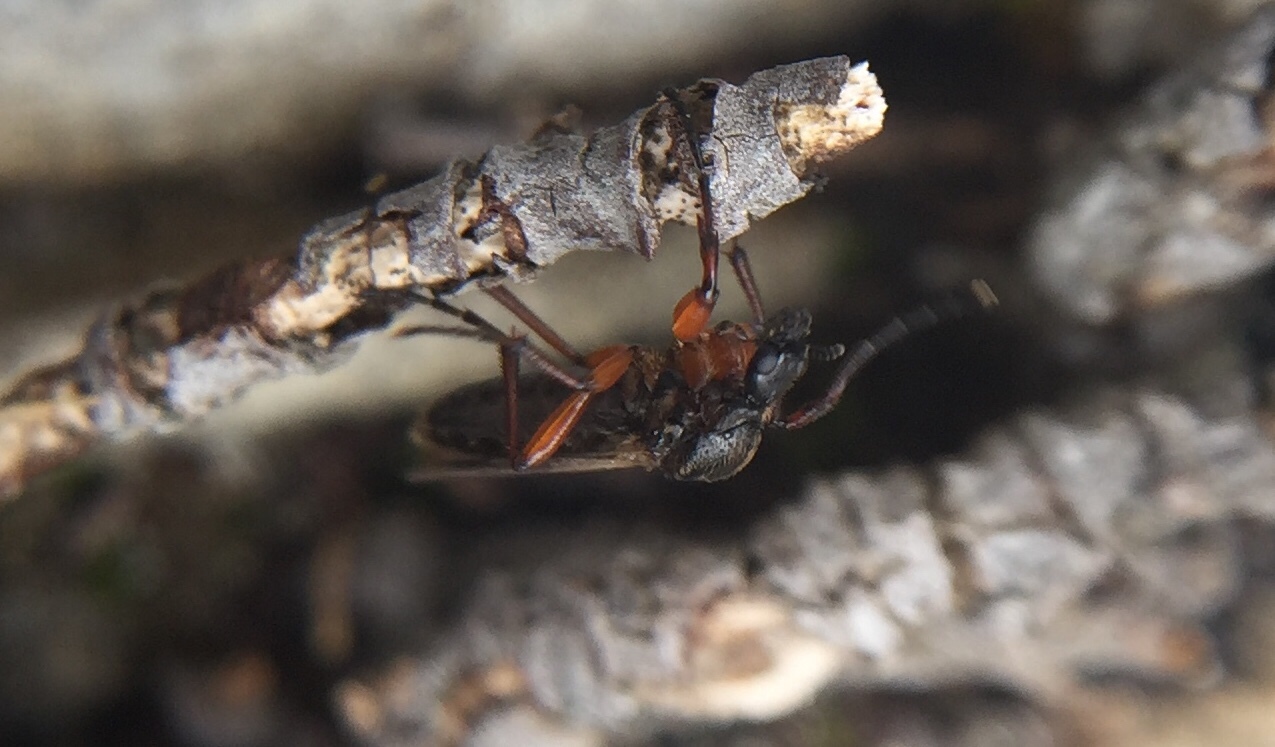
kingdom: Animalia
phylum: Arthropoda
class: Insecta
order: Diptera
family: Bibionidae
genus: Bibio
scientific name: Bibio
